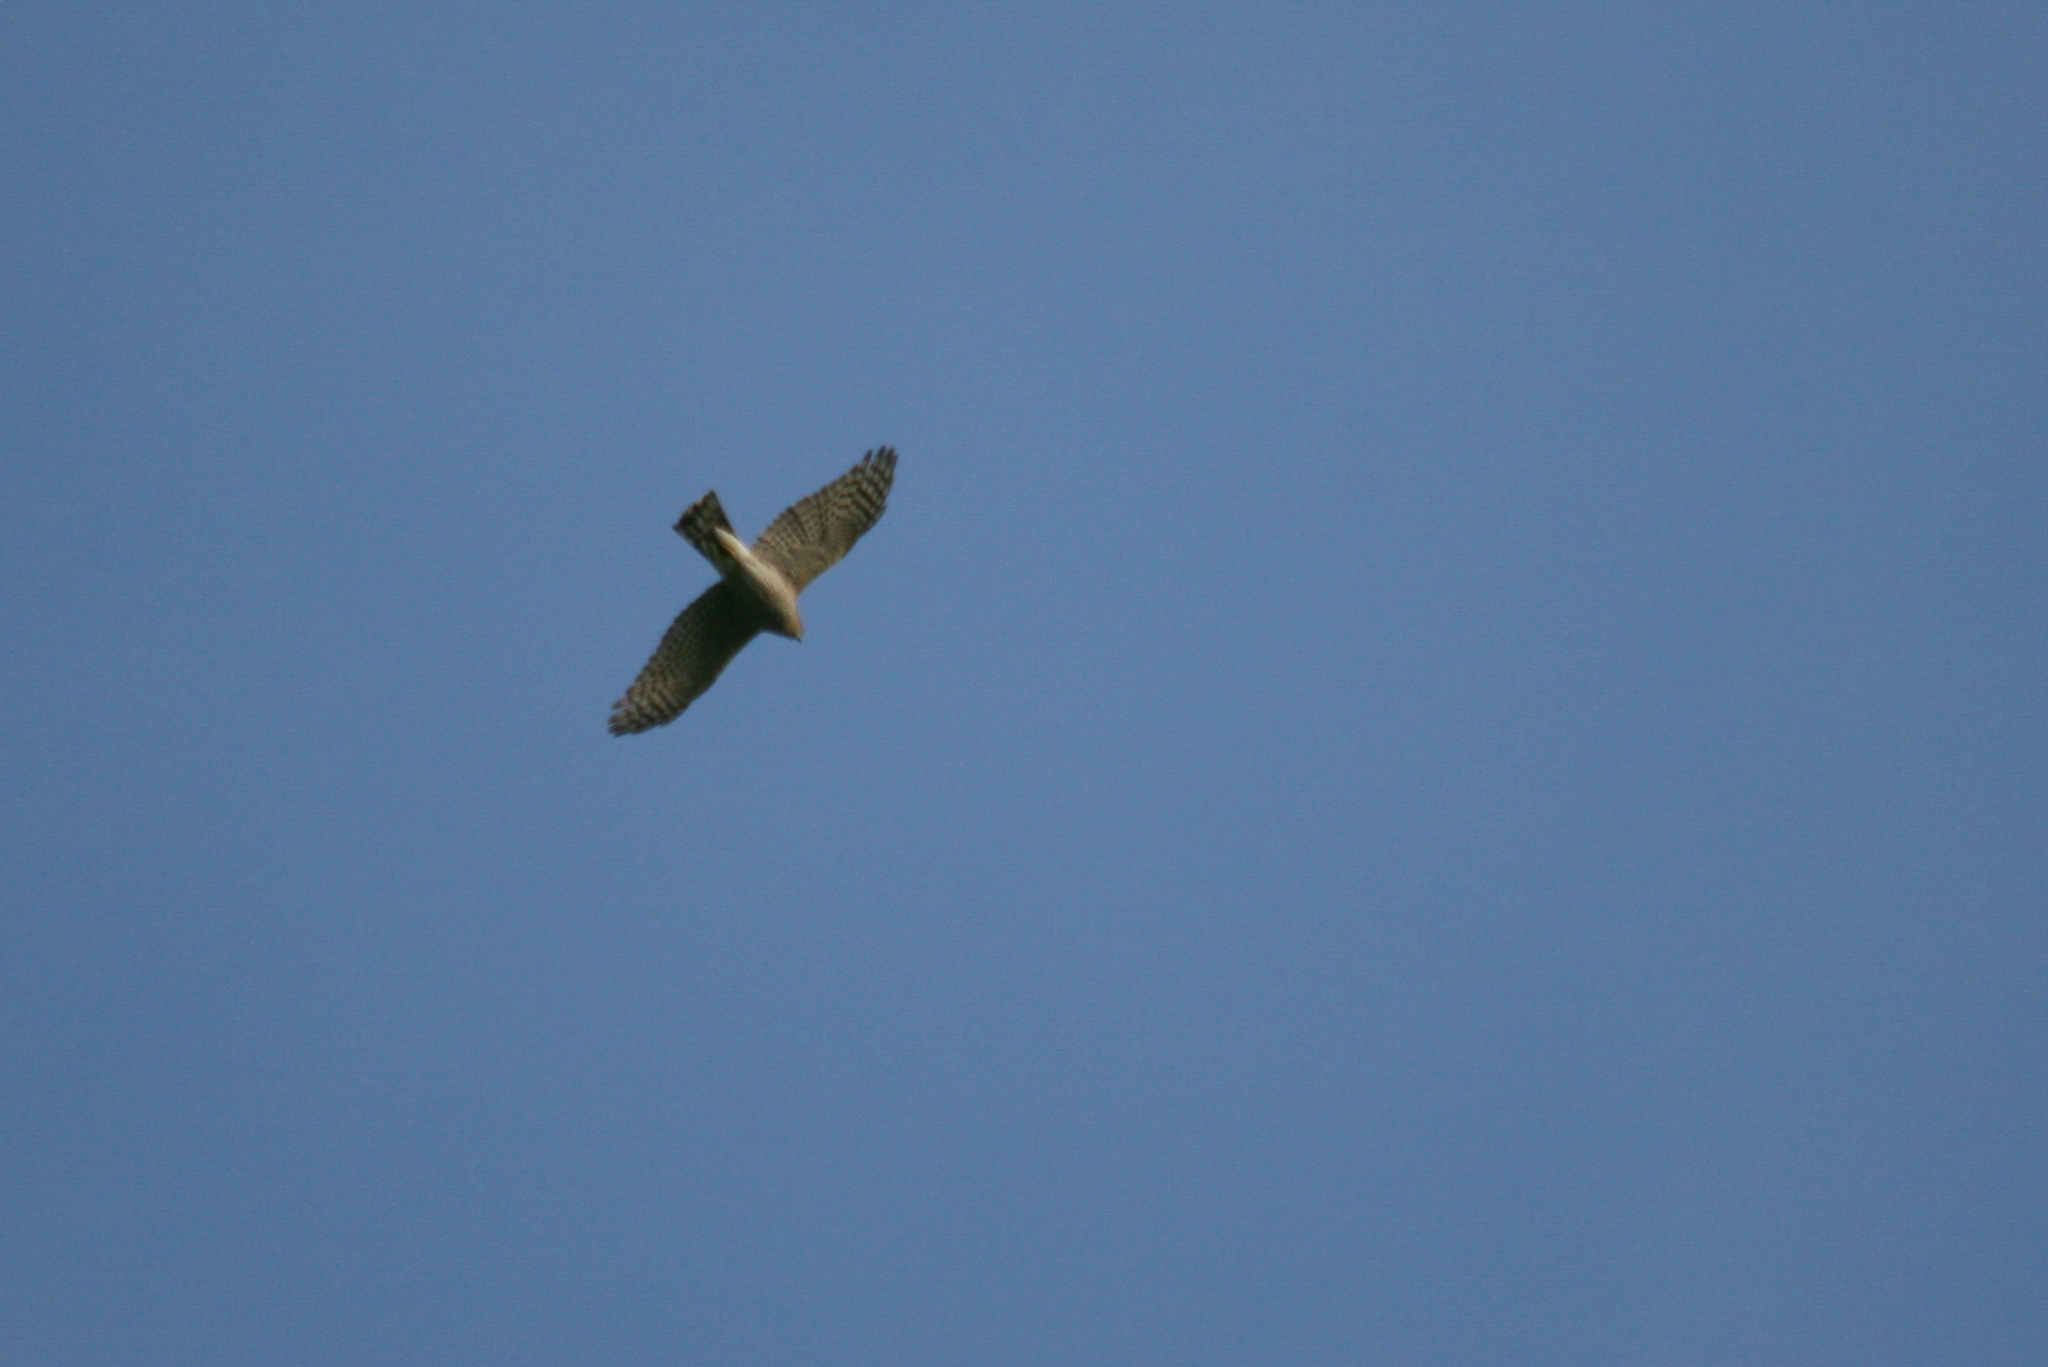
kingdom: Animalia
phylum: Chordata
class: Aves
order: Accipitriformes
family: Accipitridae
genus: Accipiter
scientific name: Accipiter nisus
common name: Eurasian sparrowhawk
